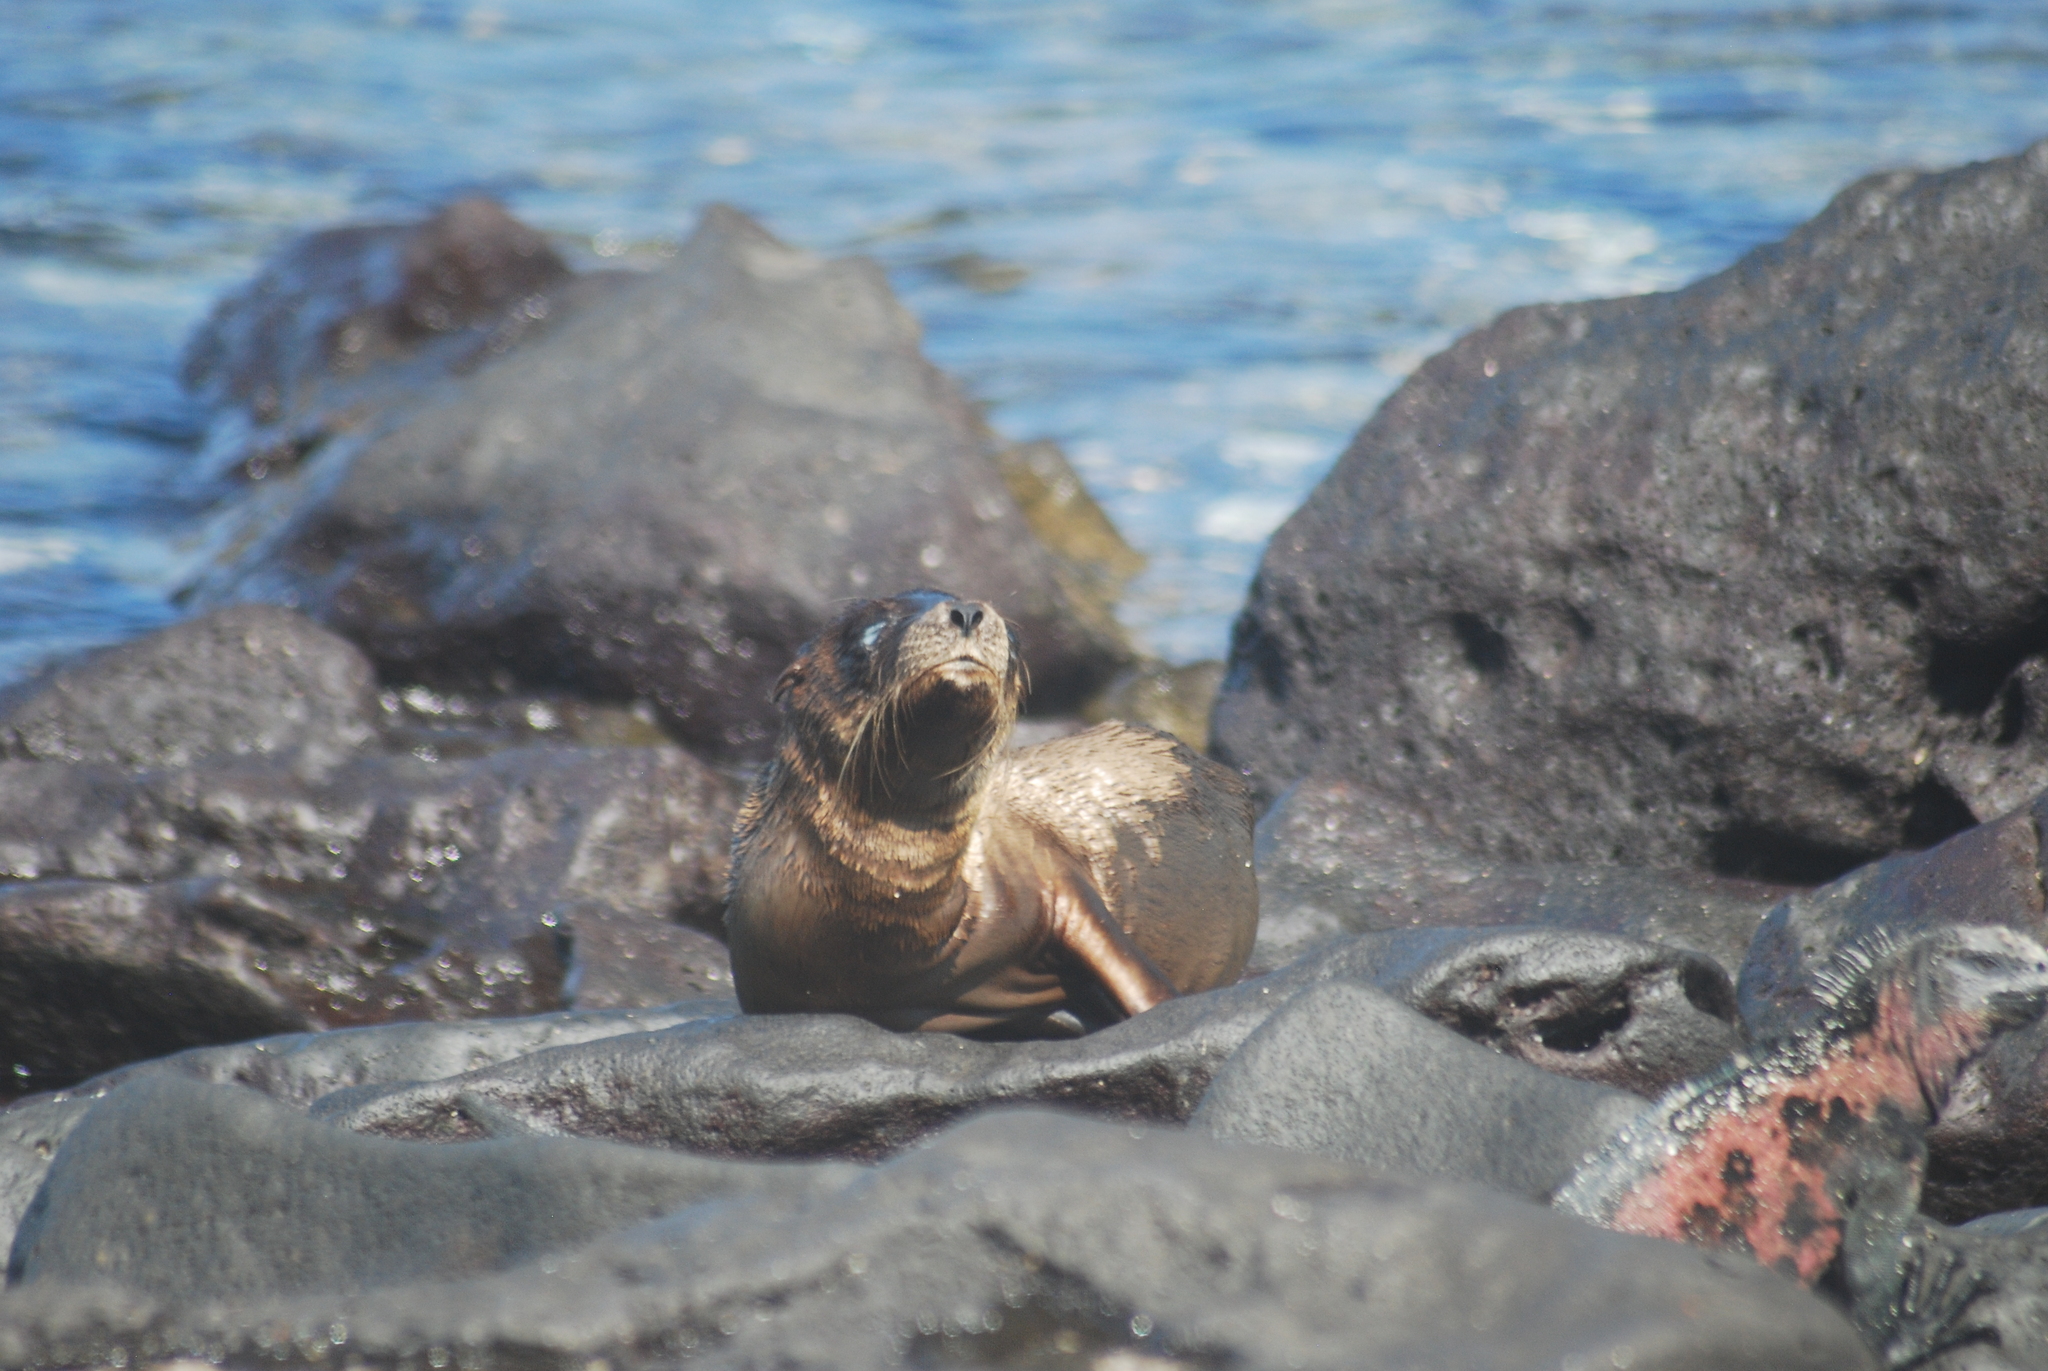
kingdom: Animalia
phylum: Chordata
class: Mammalia
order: Carnivora
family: Otariidae
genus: Zalophus
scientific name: Zalophus wollebaeki
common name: Galapagos sea lion
